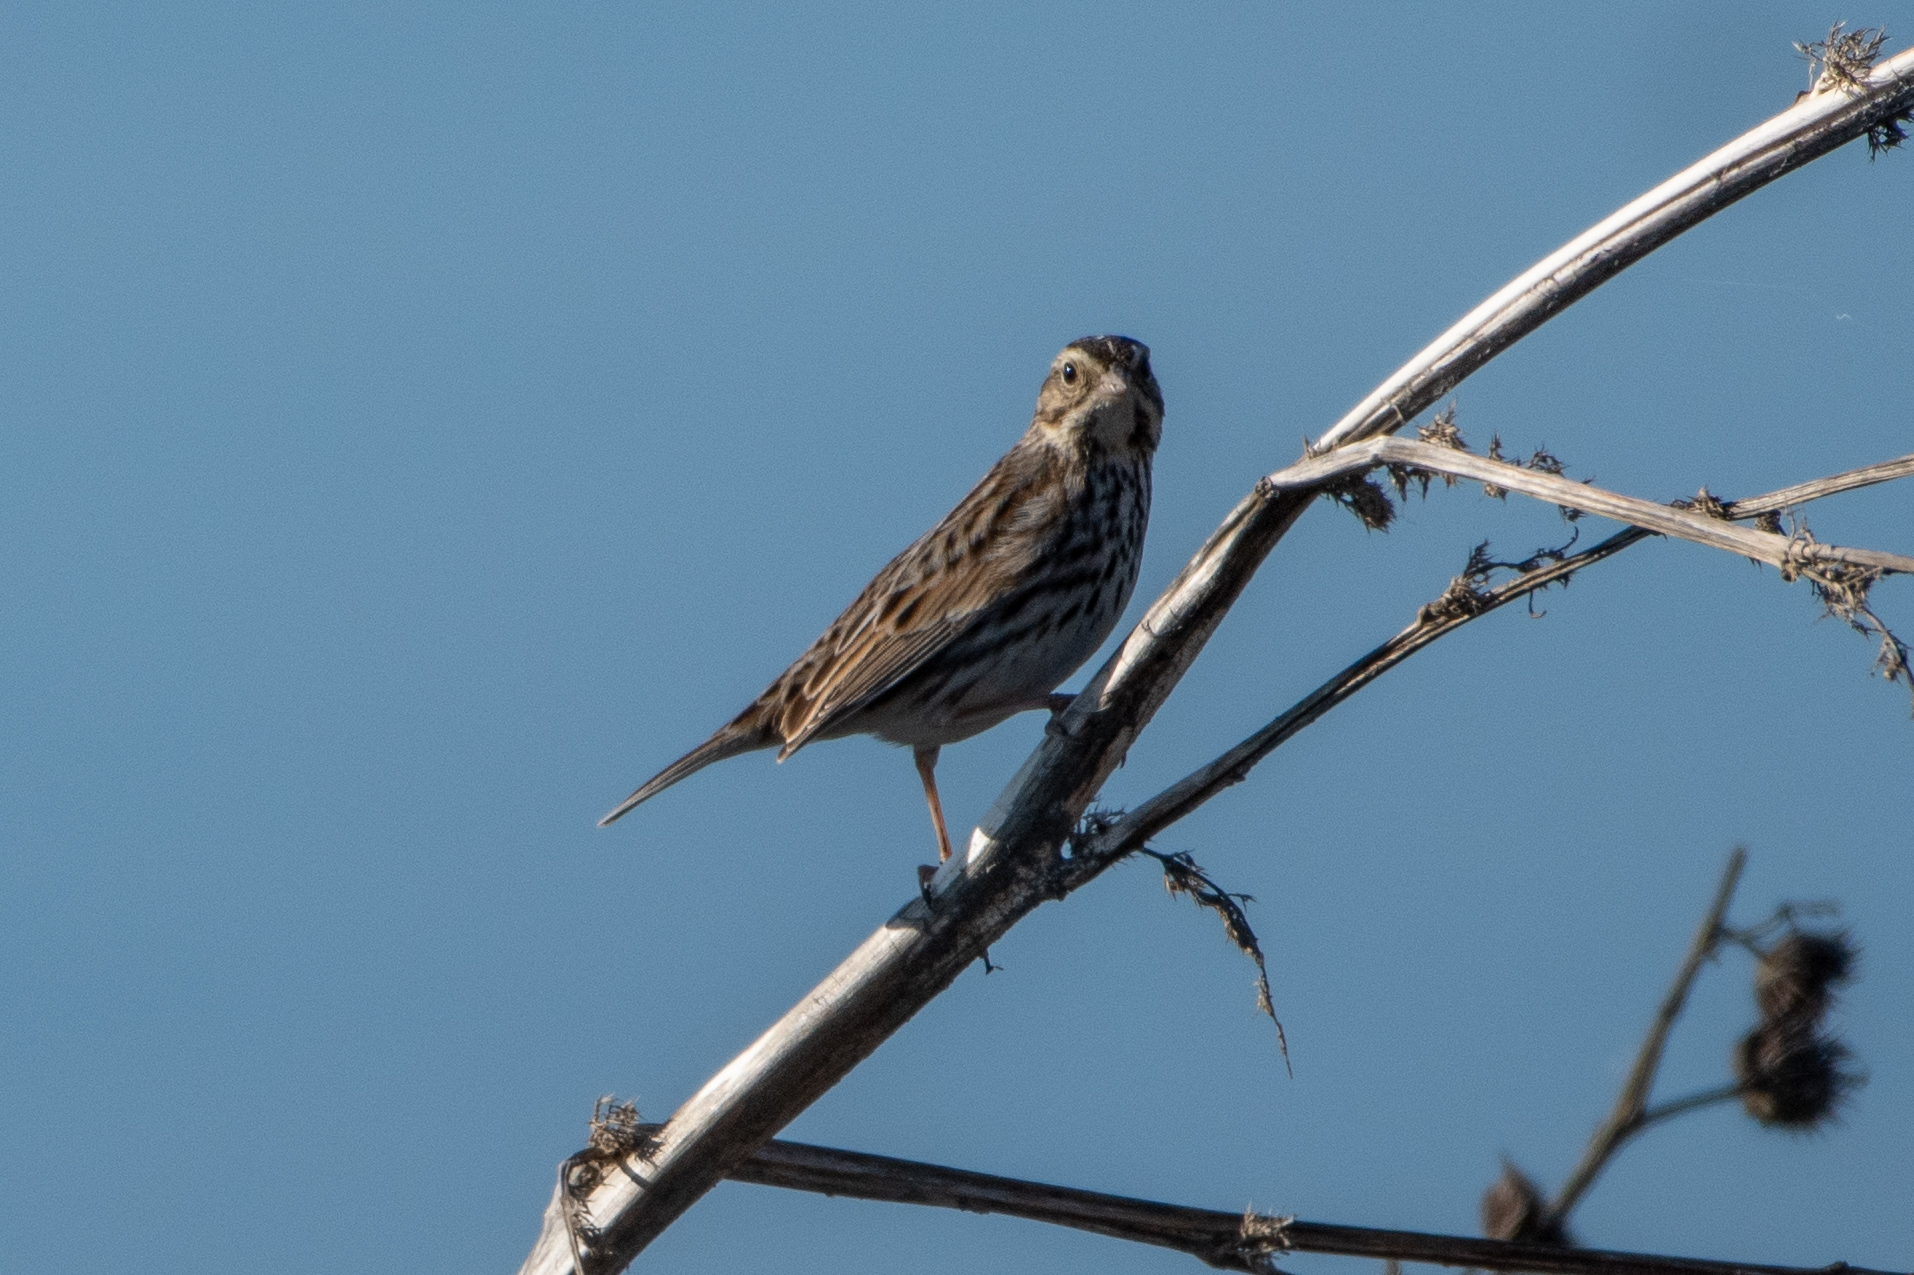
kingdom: Animalia
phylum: Chordata
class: Aves
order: Passeriformes
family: Passerellidae
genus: Passerculus
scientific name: Passerculus sandwichensis
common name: Savannah sparrow
